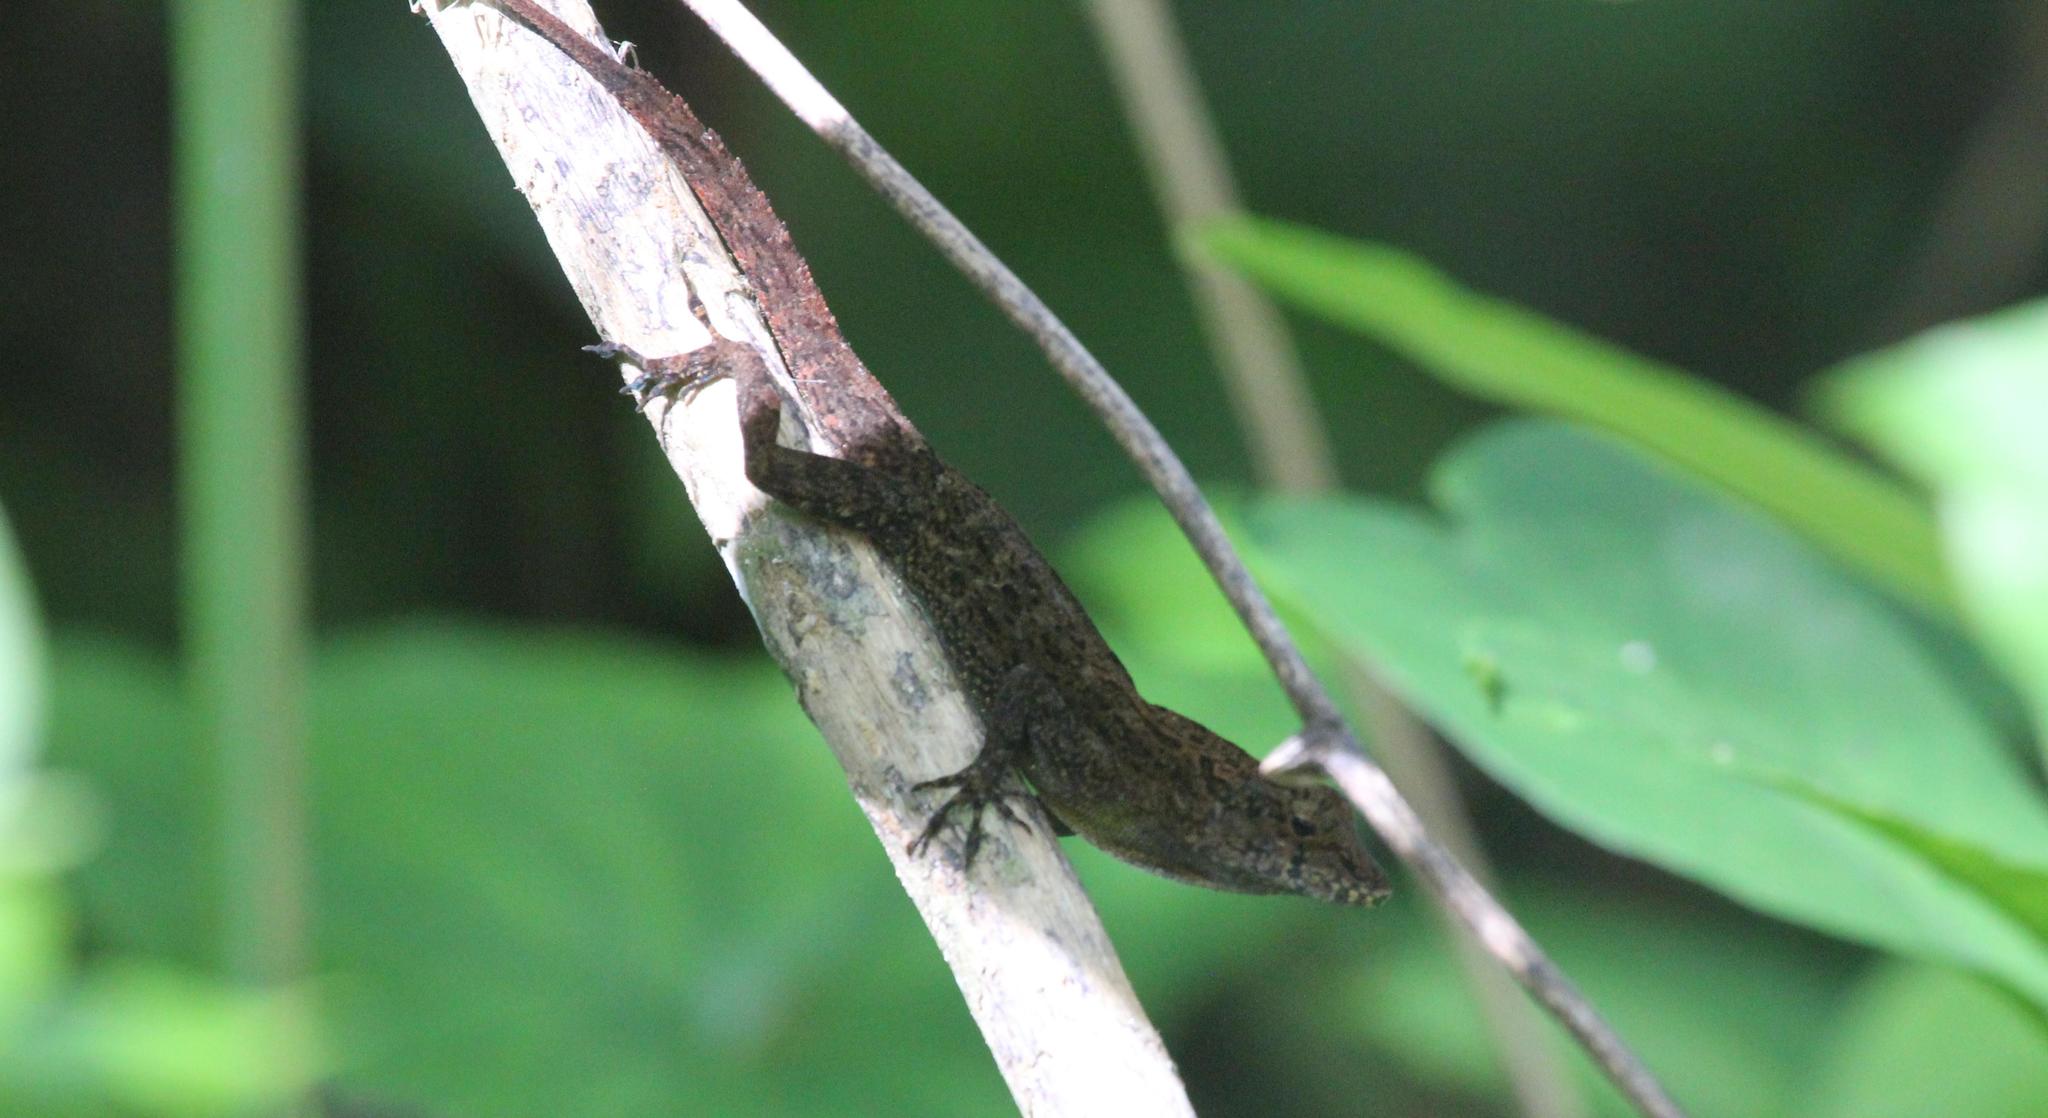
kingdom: Animalia
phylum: Chordata
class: Squamata
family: Dactyloidae
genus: Anolis
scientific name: Anolis cristatellus
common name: Crested anole
